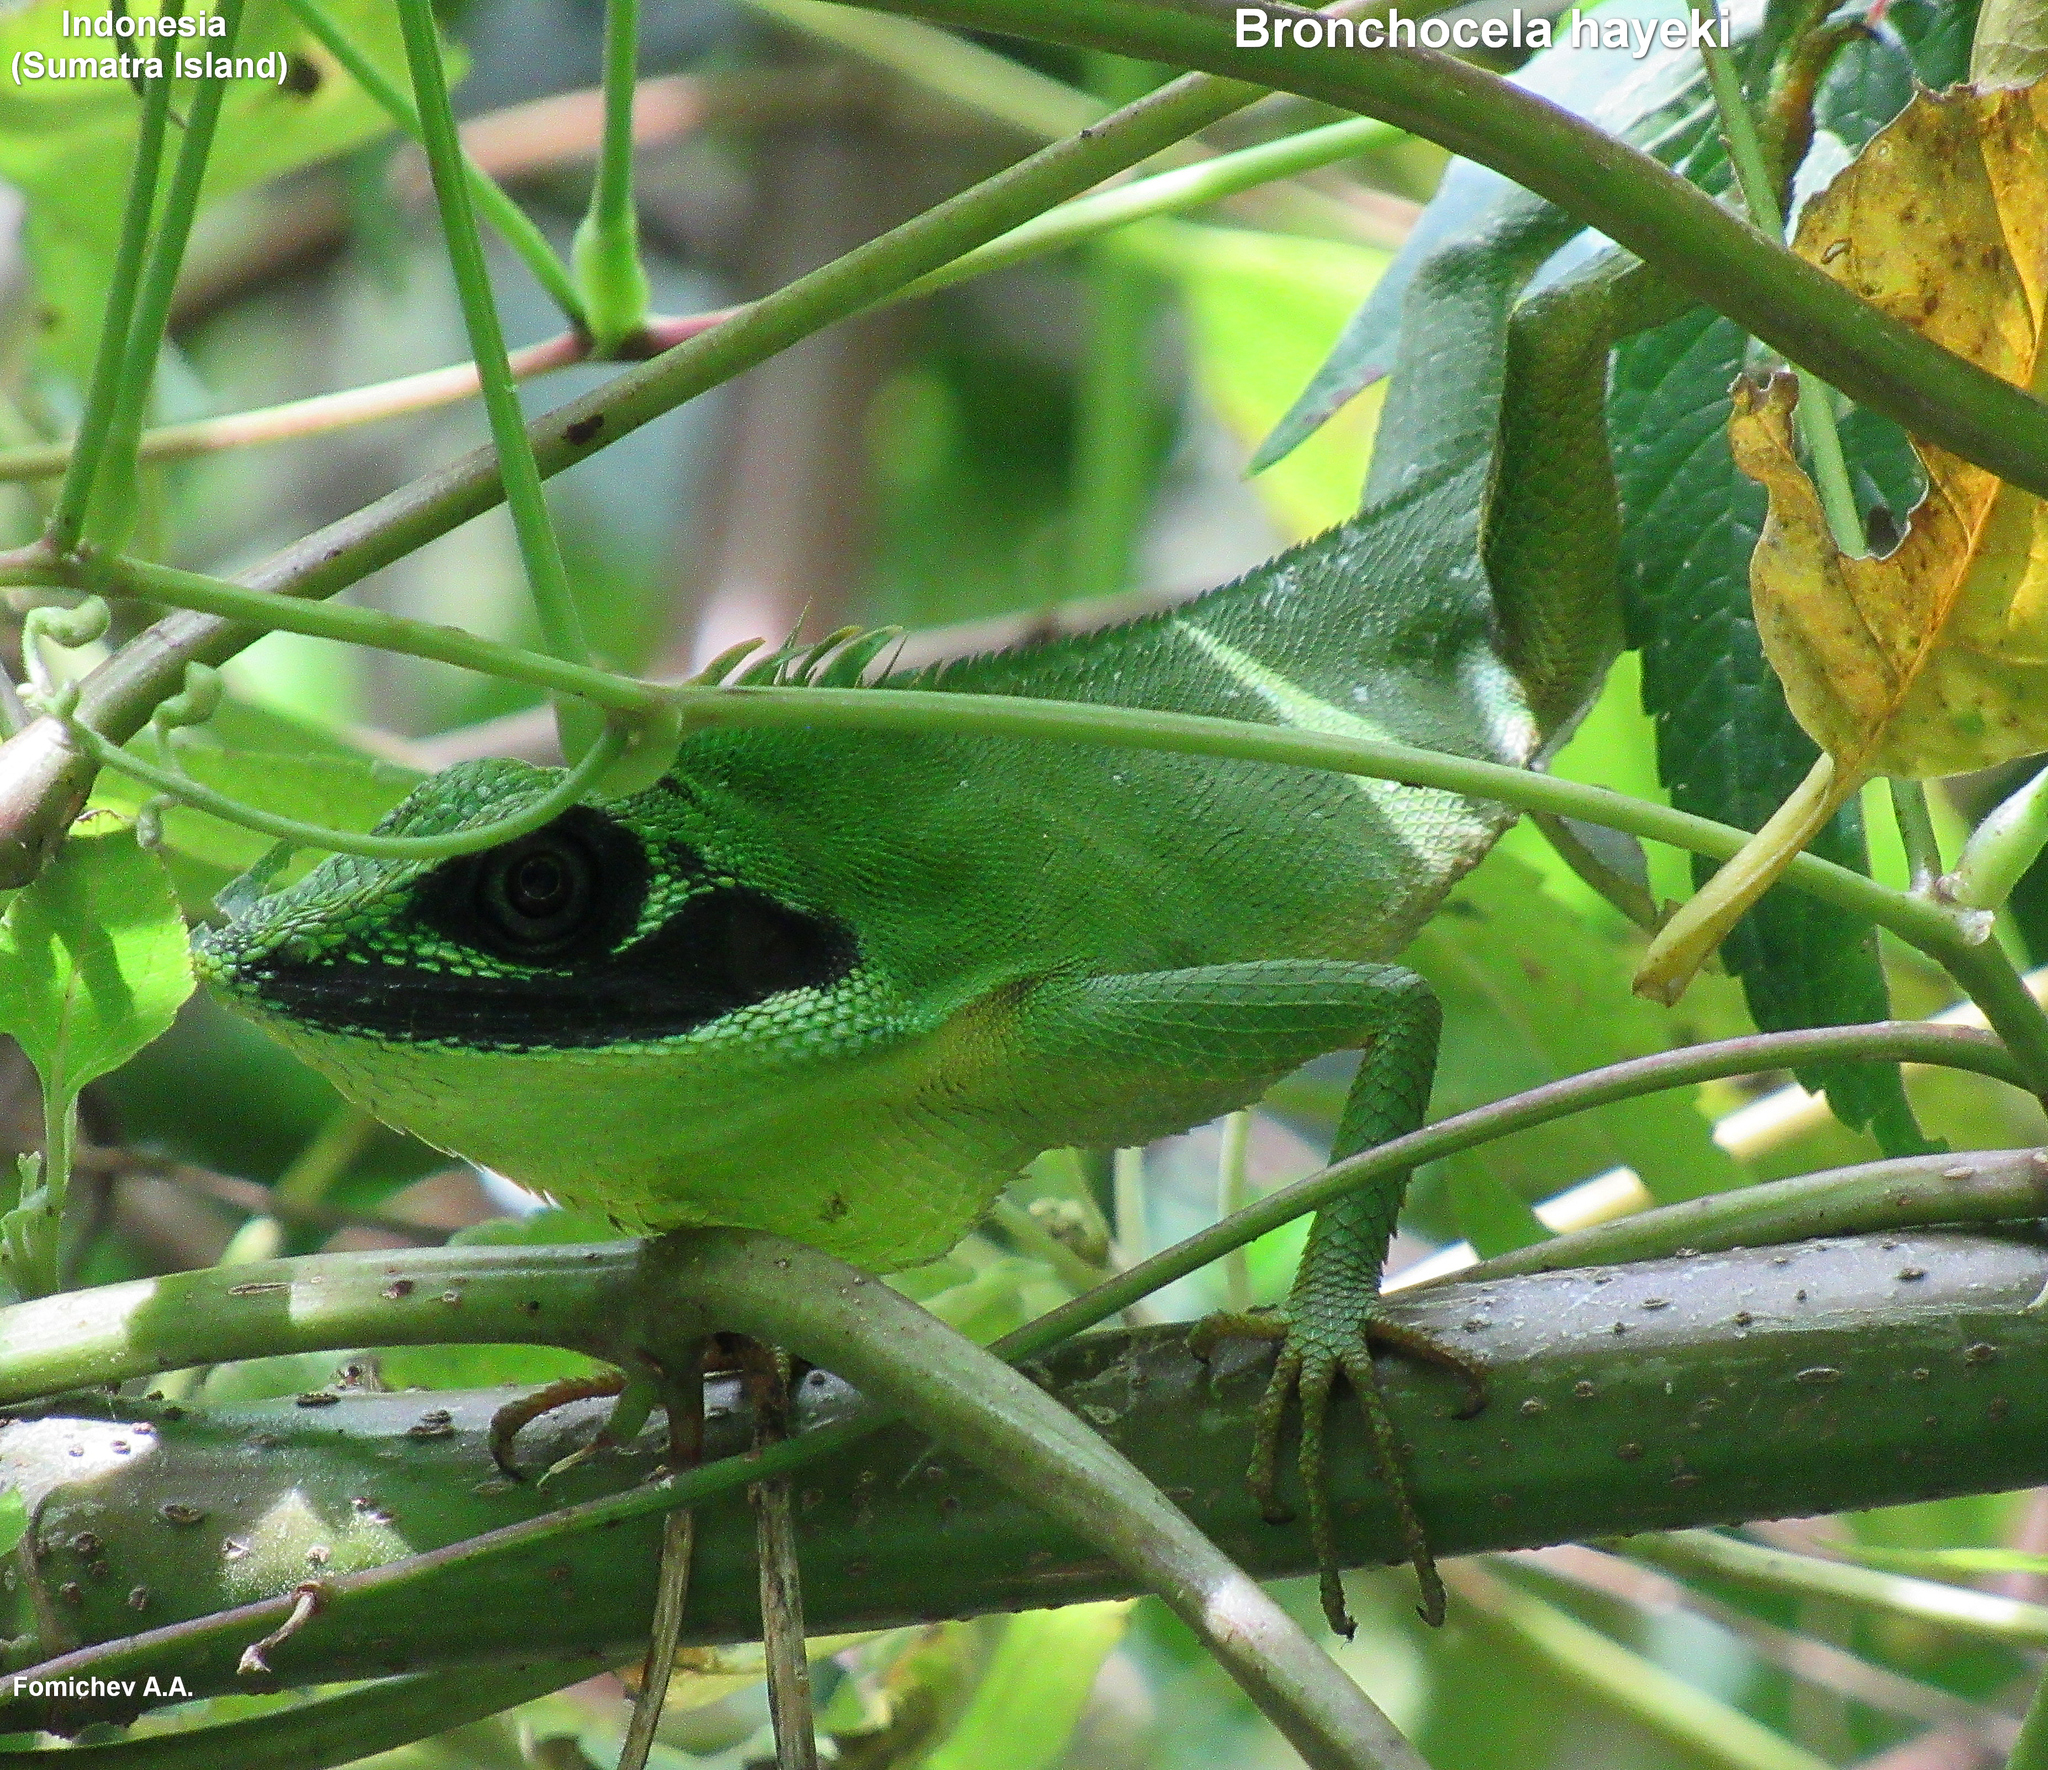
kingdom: Animalia
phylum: Chordata
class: Squamata
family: Agamidae
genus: Bronchocela
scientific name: Bronchocela hayeki
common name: Sumatra bloodsucker
